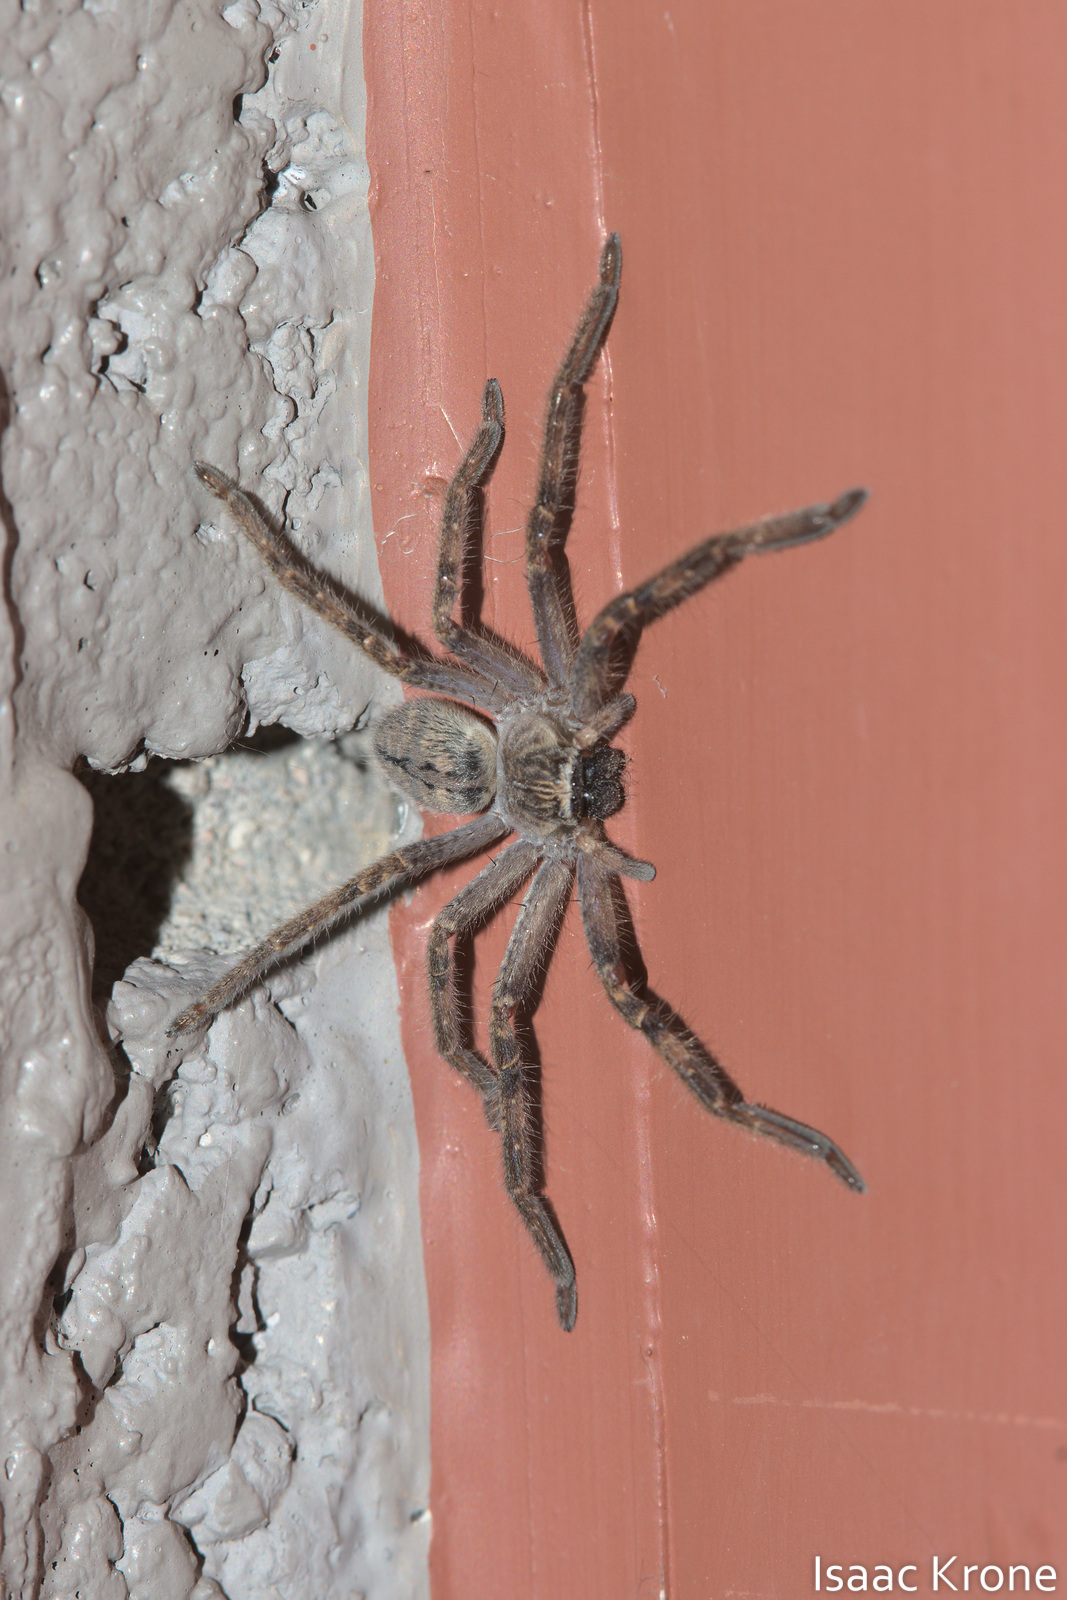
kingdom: Animalia
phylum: Arthropoda
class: Arachnida
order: Araneae
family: Sparassidae
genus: Olios
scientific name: Olios giganteus
